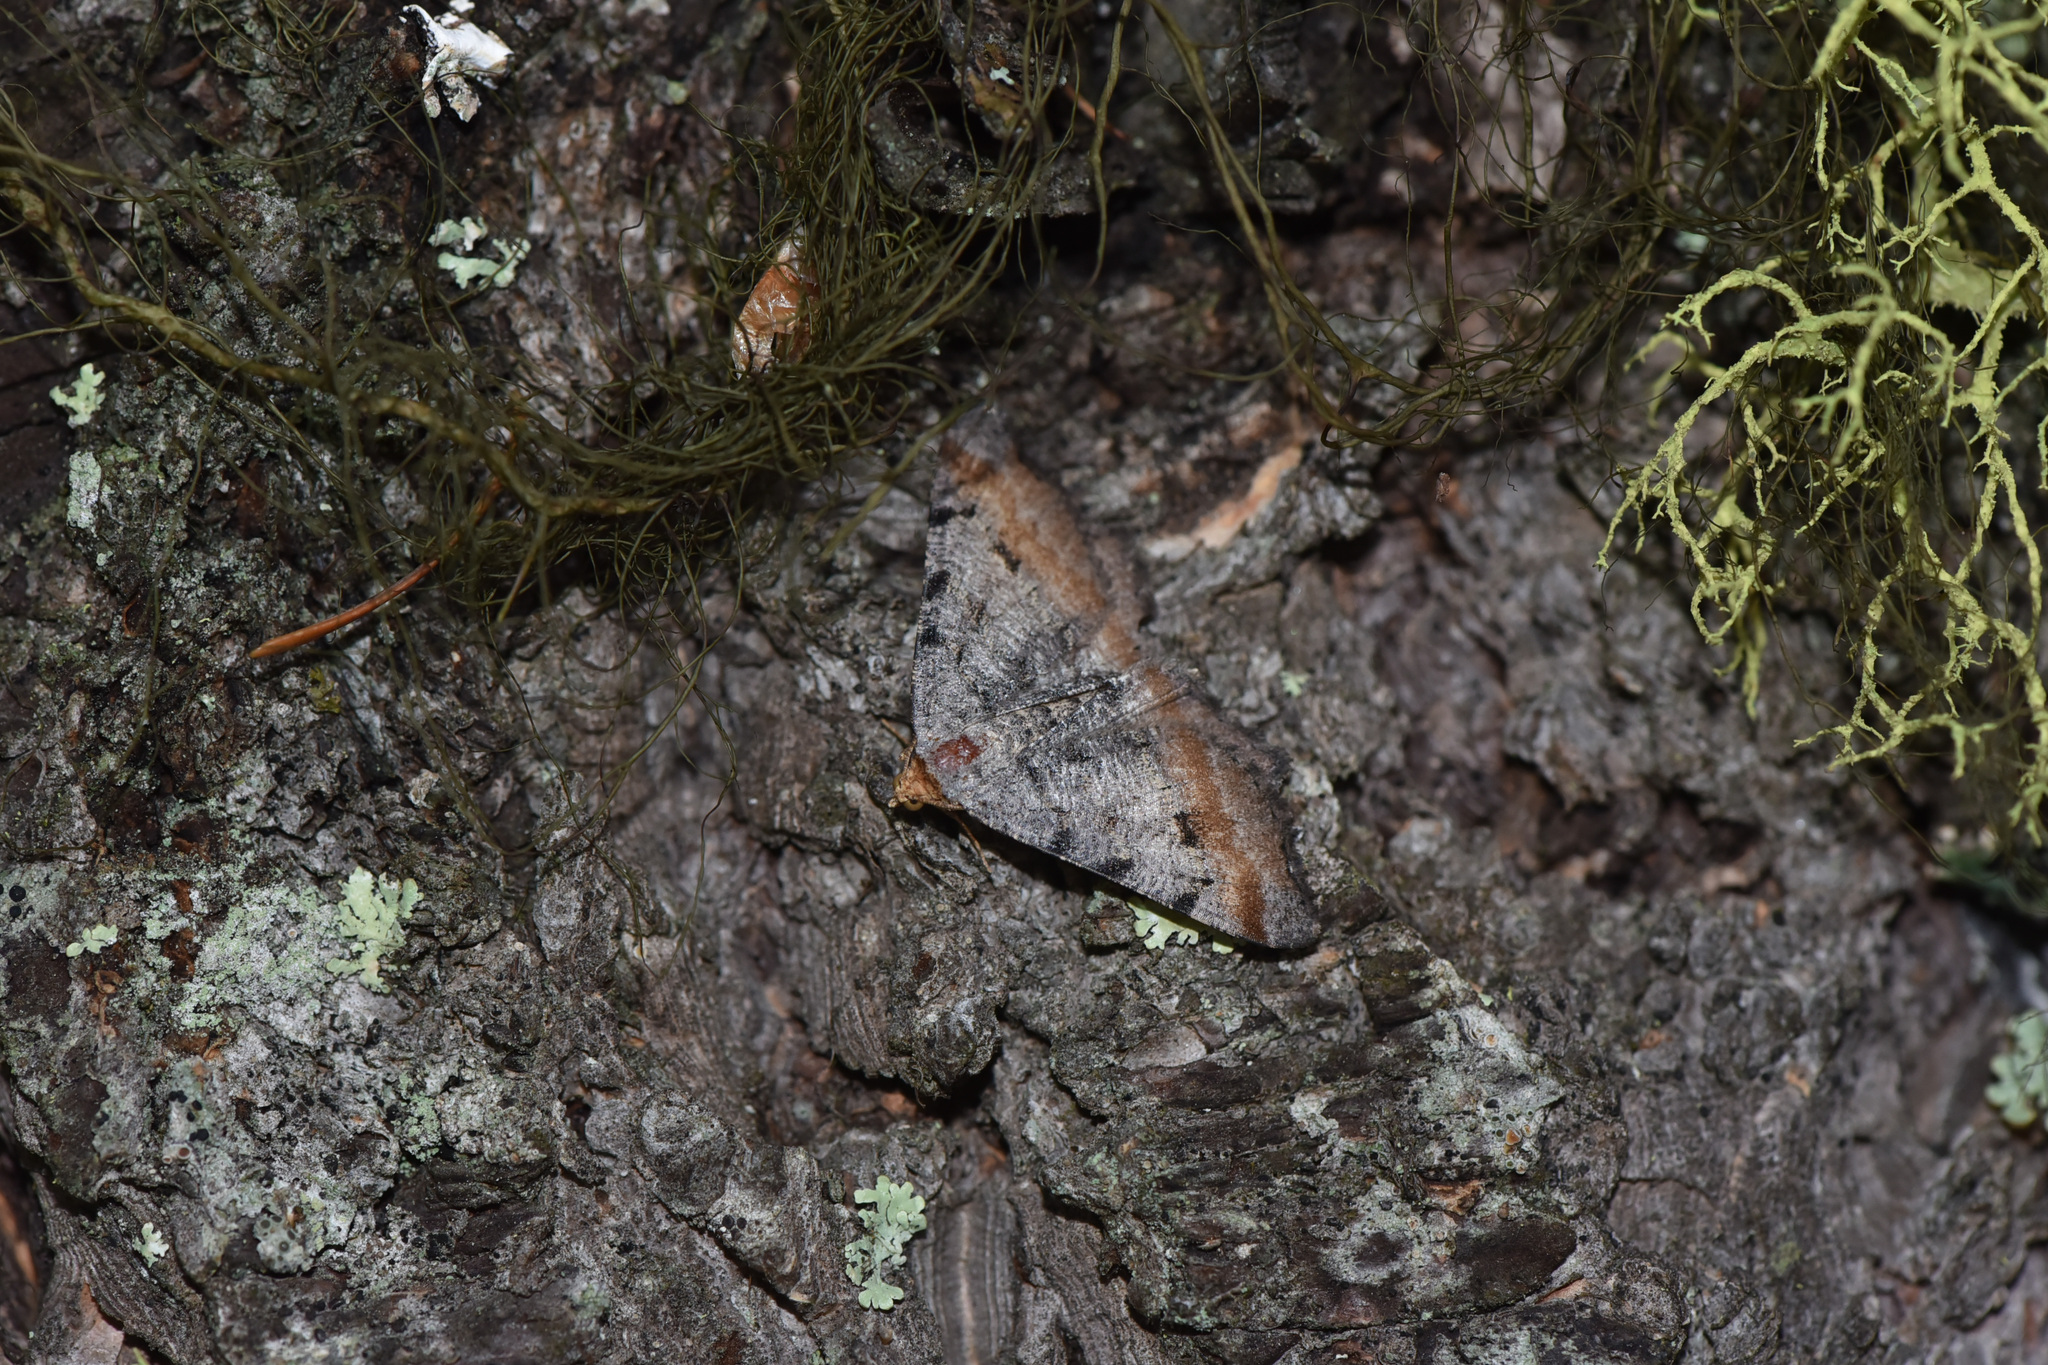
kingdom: Animalia
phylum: Arthropoda
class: Insecta
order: Lepidoptera
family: Geometridae
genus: Macaria
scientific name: Macaria adonis
